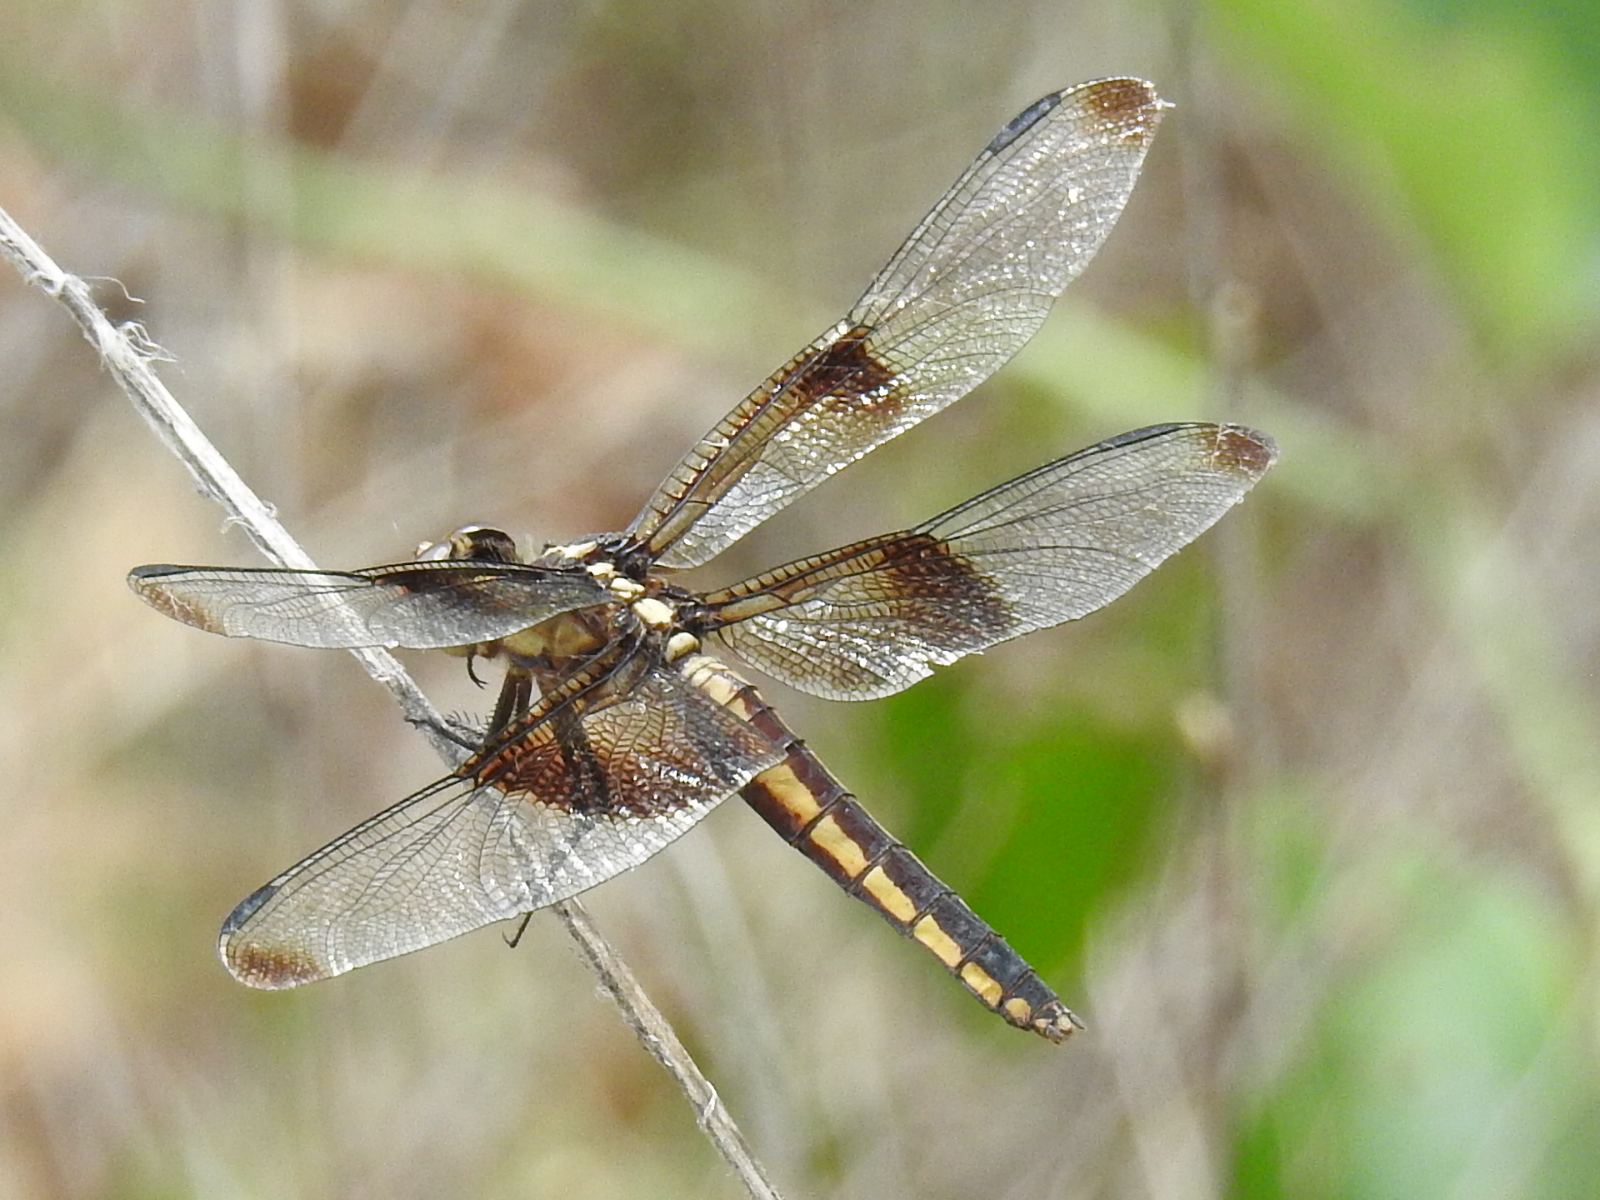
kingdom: Animalia
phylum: Arthropoda
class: Insecta
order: Odonata
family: Libellulidae
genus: Libellula
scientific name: Libellula luctuosa
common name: Widow skimmer
